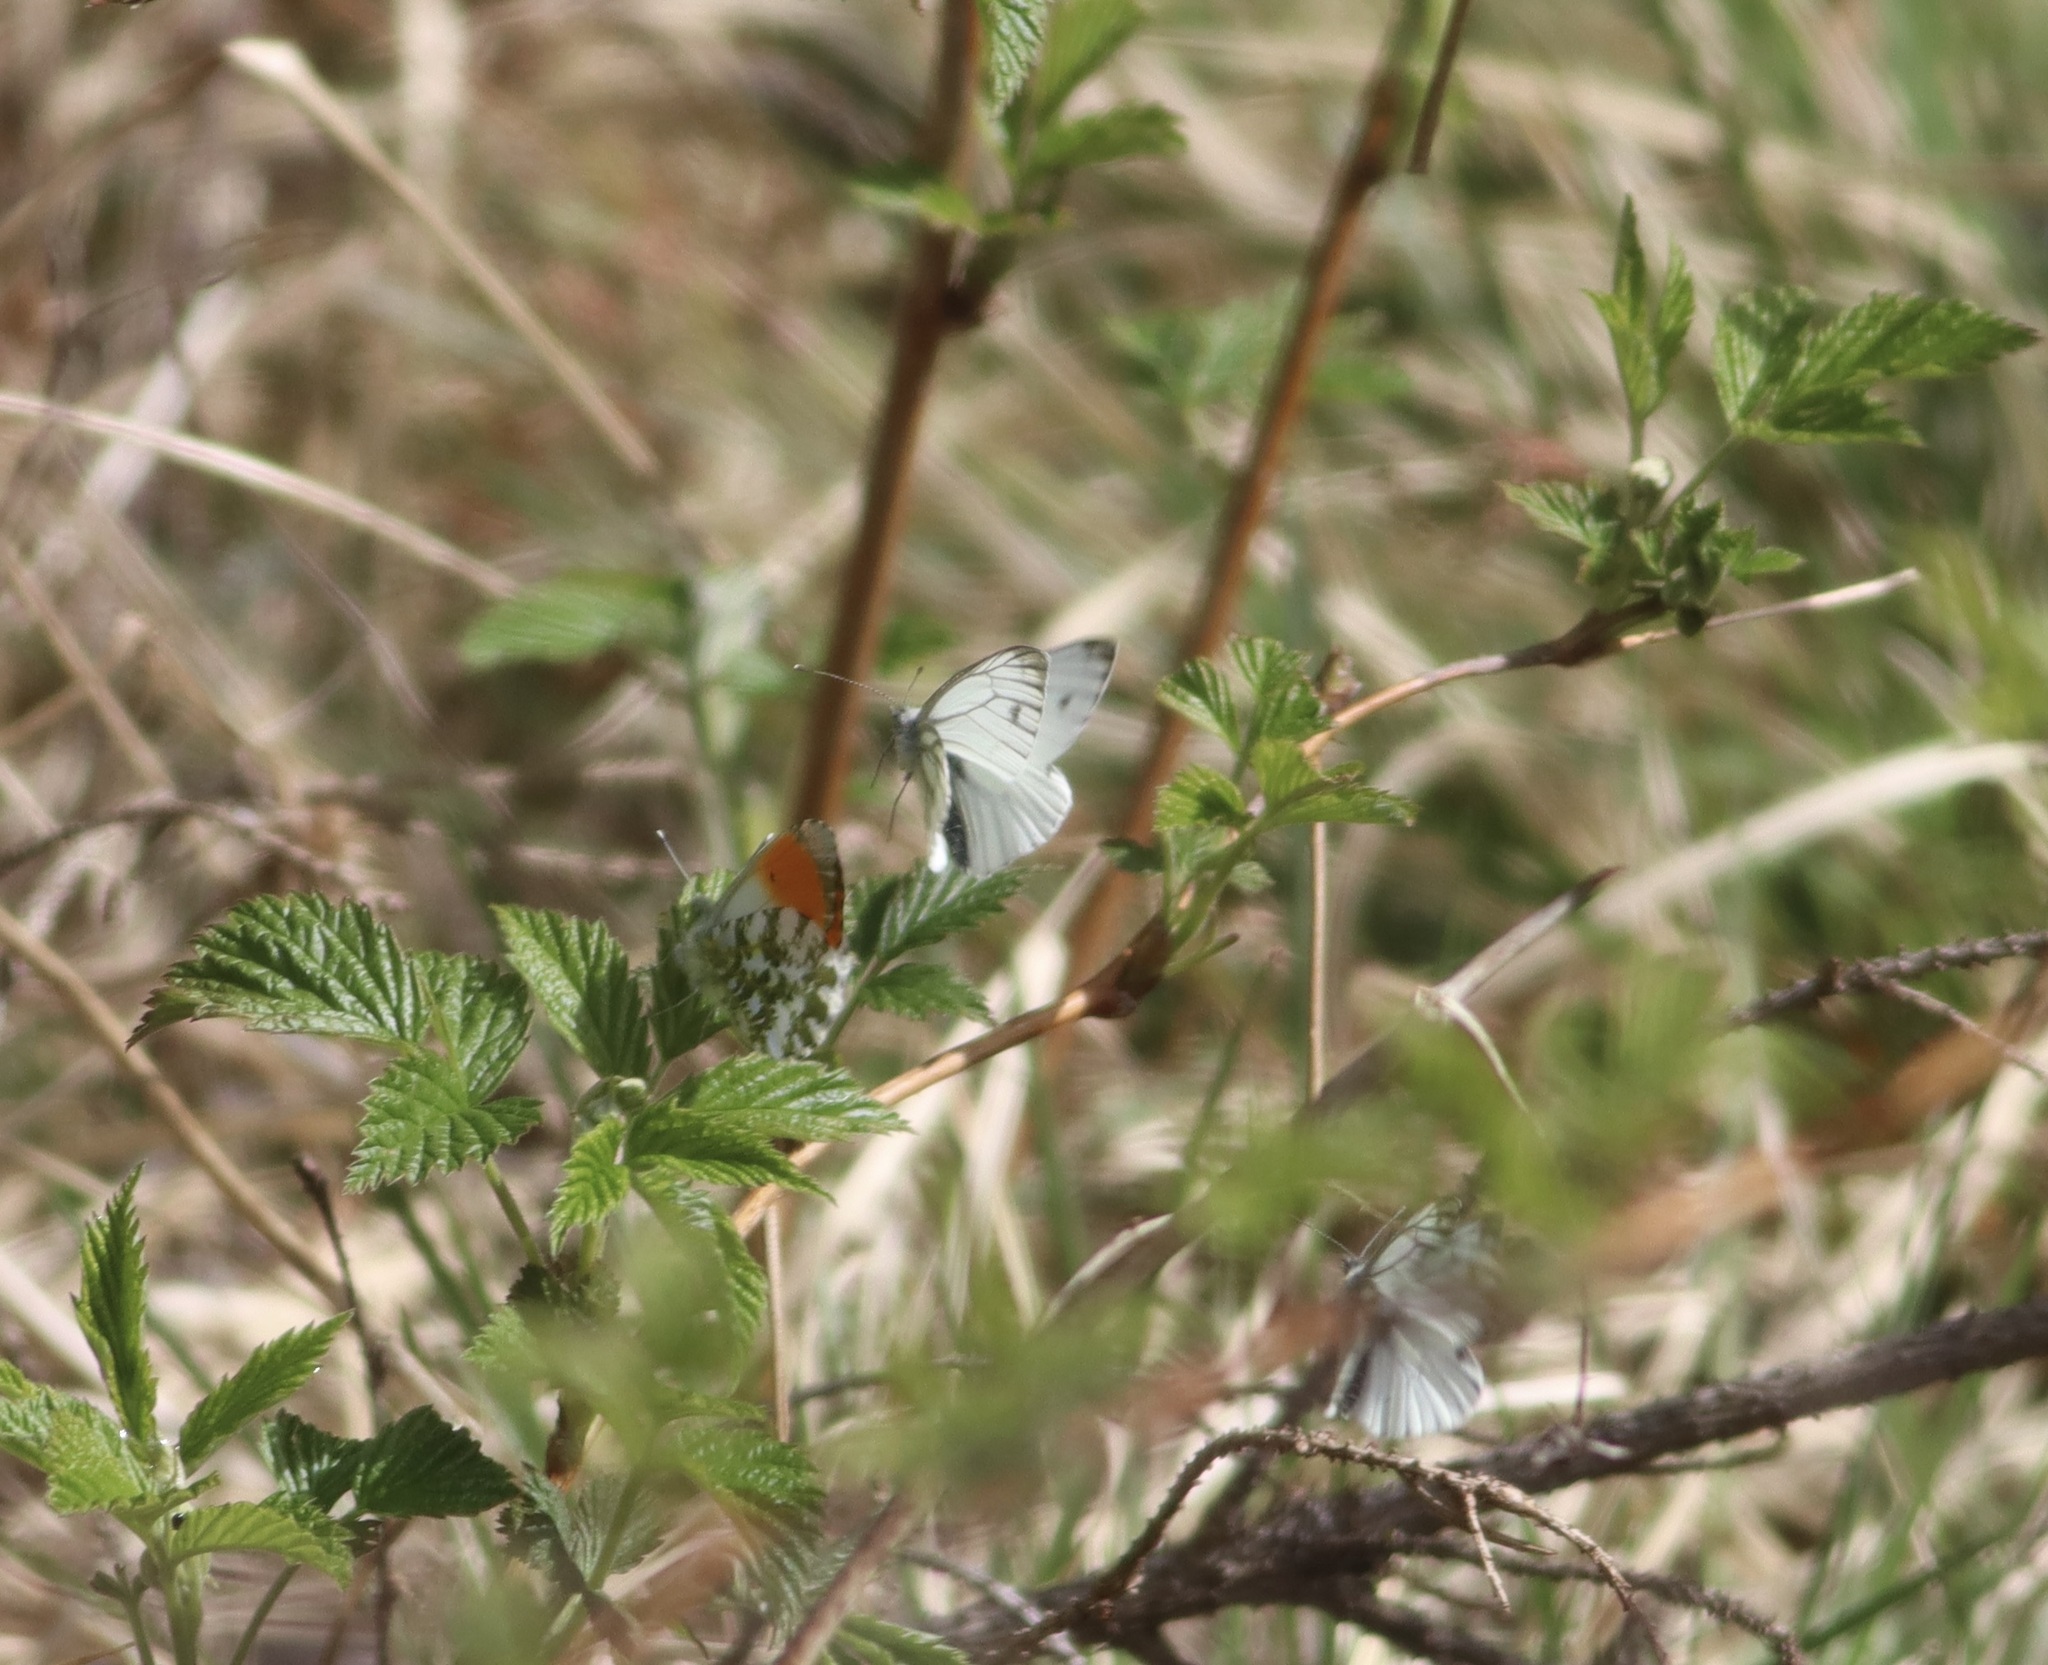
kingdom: Animalia
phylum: Arthropoda
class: Insecta
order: Lepidoptera
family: Pieridae
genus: Anthocharis
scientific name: Anthocharis cardamines
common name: Orange-tip
